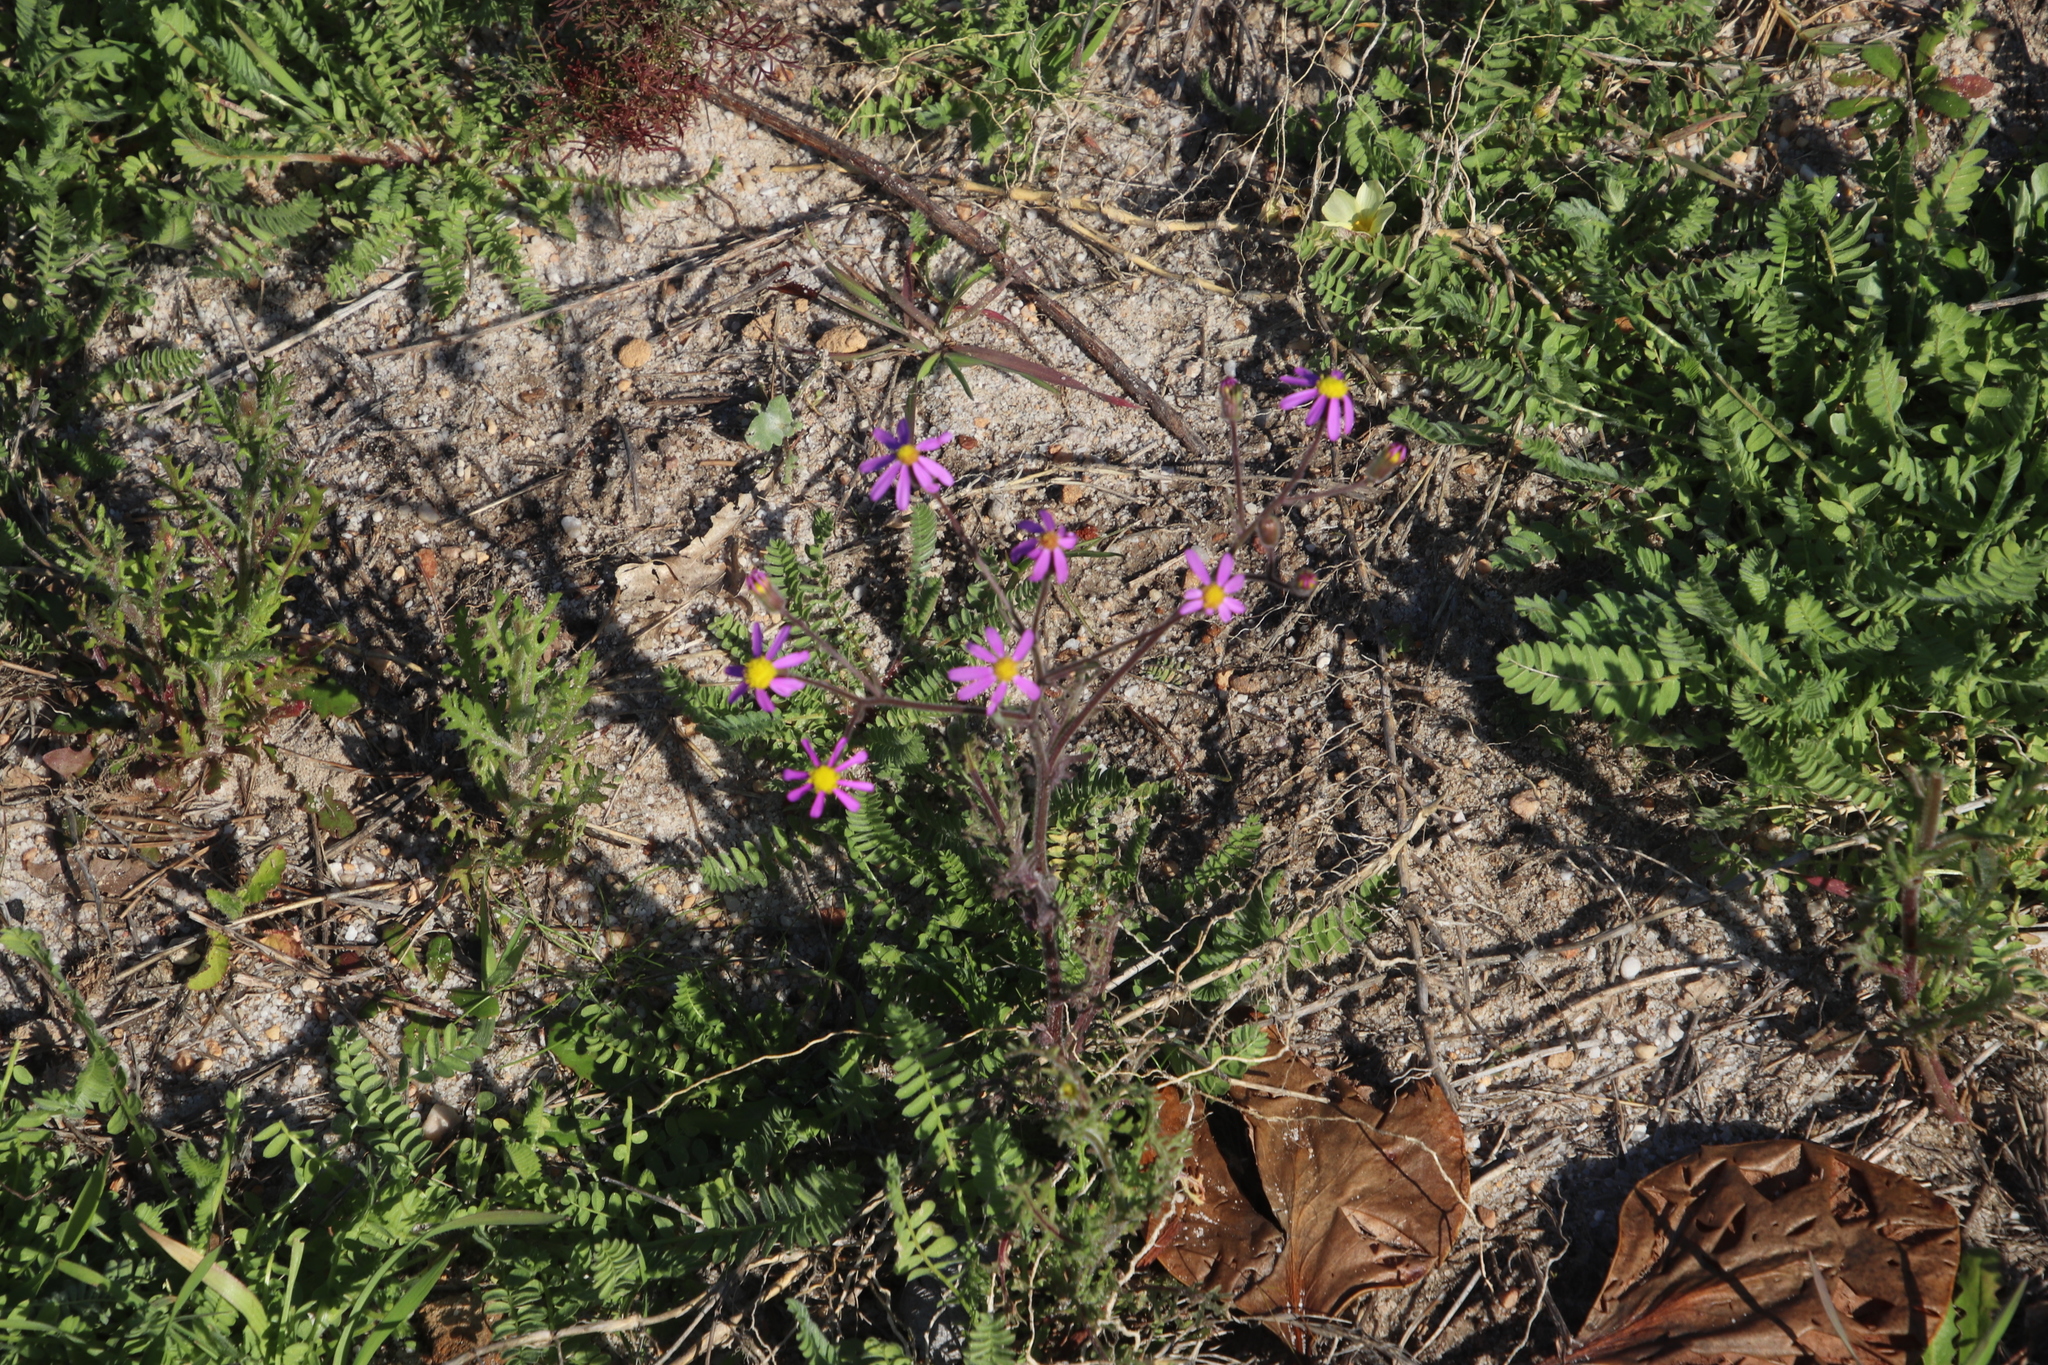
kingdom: Plantae
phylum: Tracheophyta
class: Magnoliopsida
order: Asterales
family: Asteraceae
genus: Senecio
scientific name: Senecio arenarius
